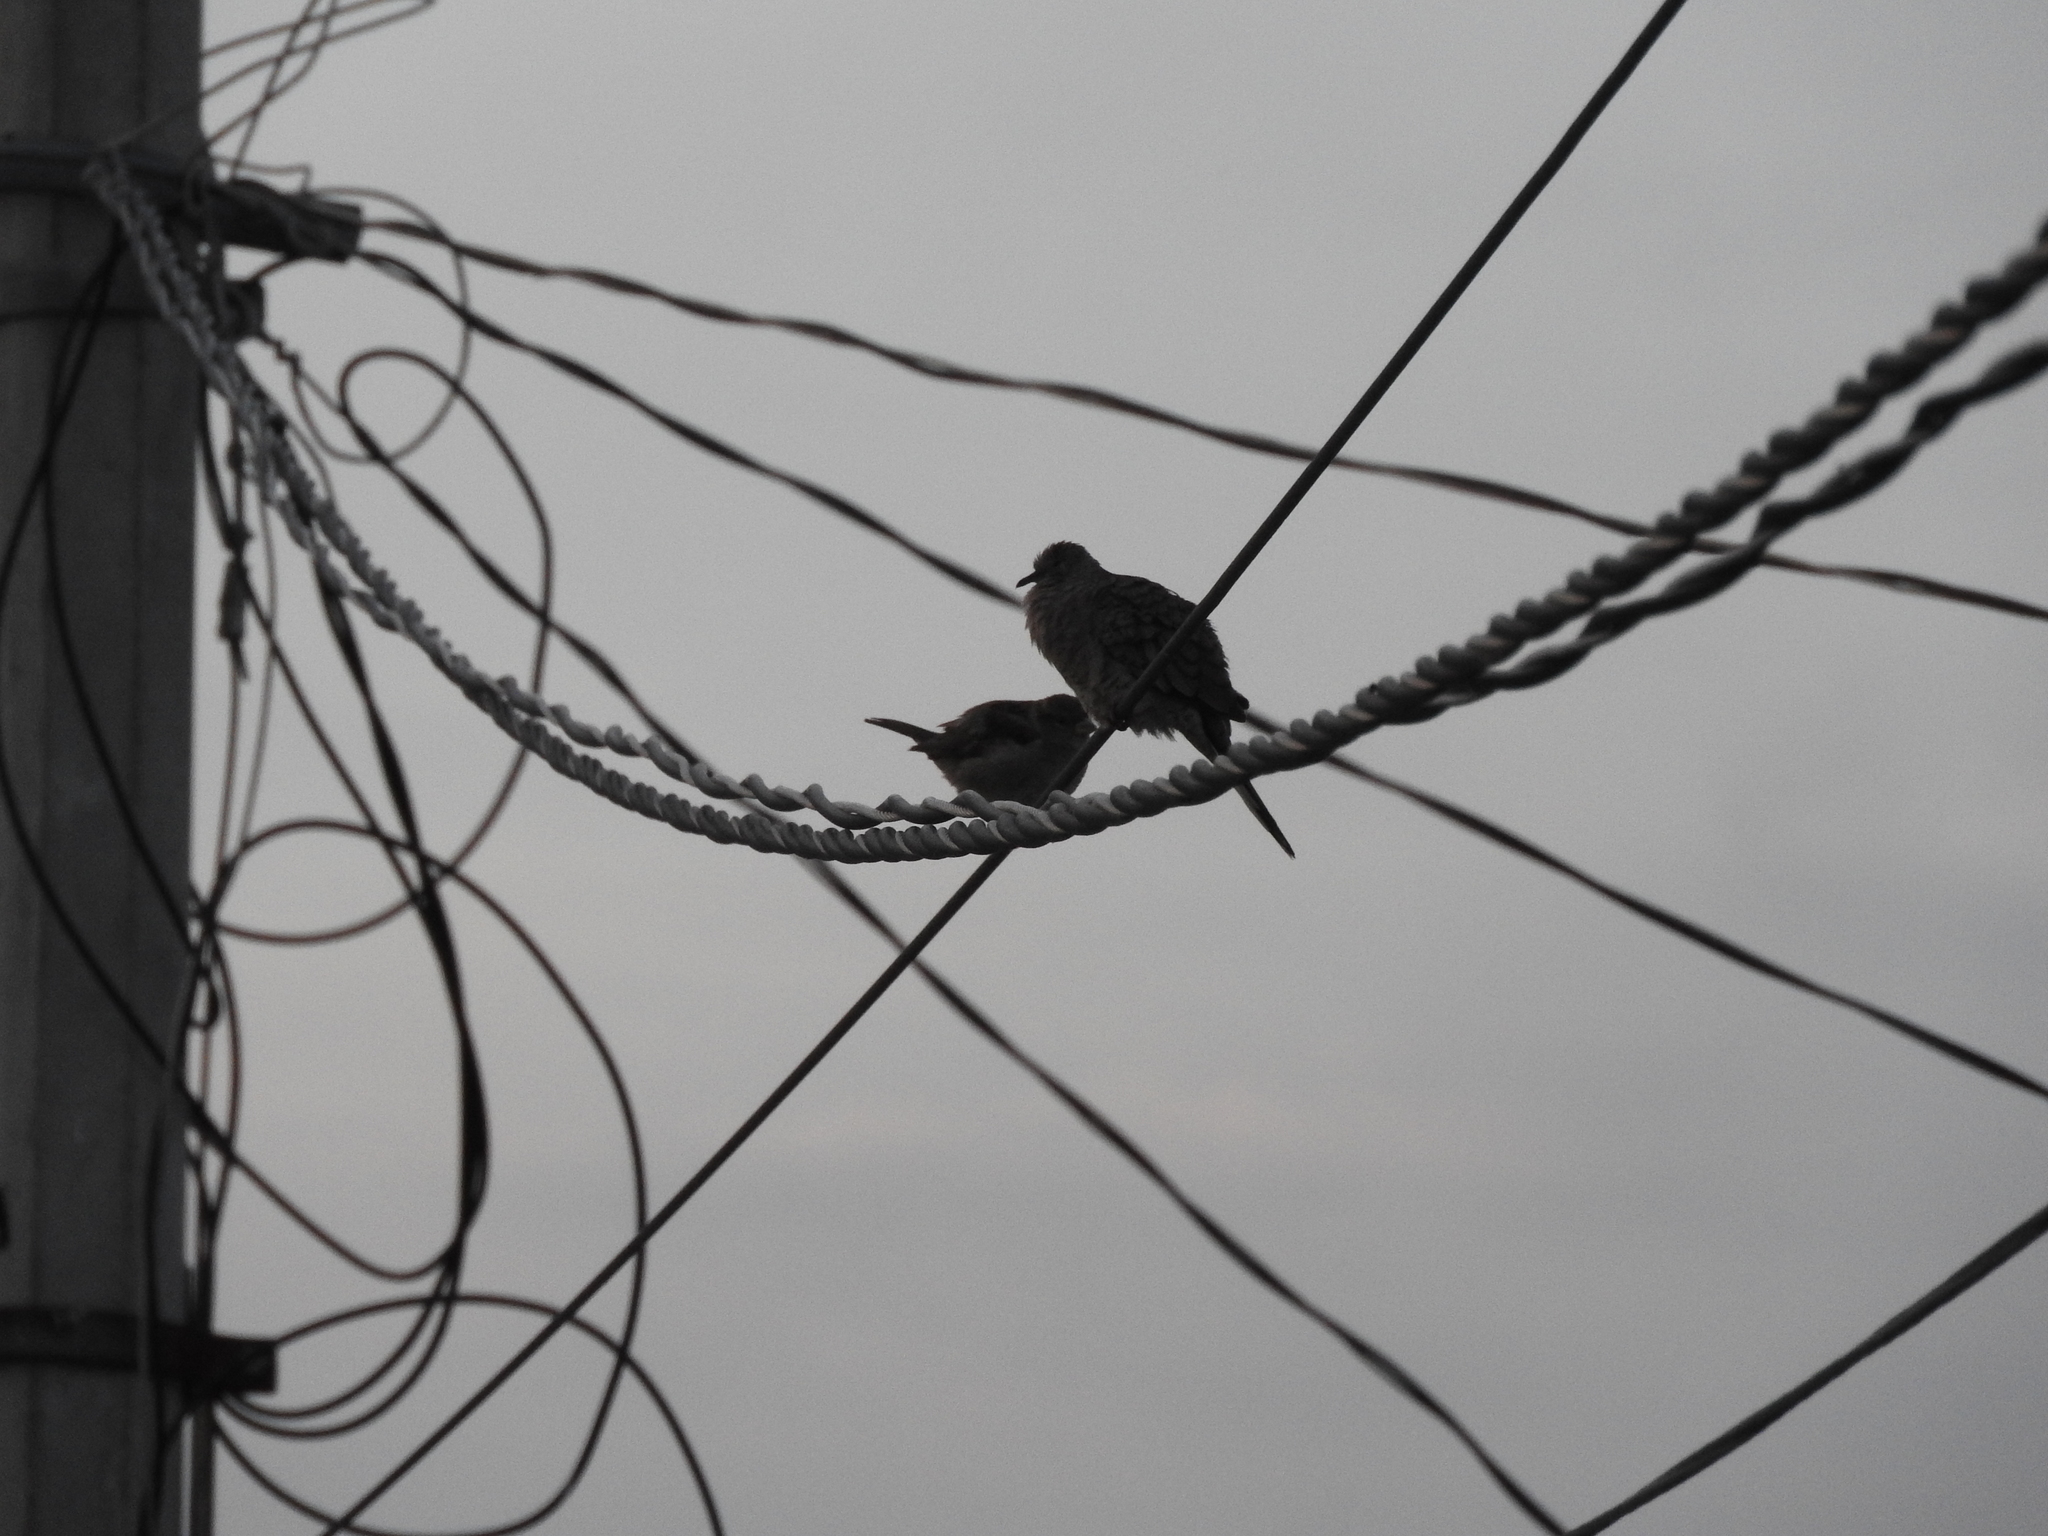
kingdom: Animalia
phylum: Chordata
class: Aves
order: Passeriformes
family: Passeridae
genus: Passer
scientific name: Passer domesticus
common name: House sparrow
